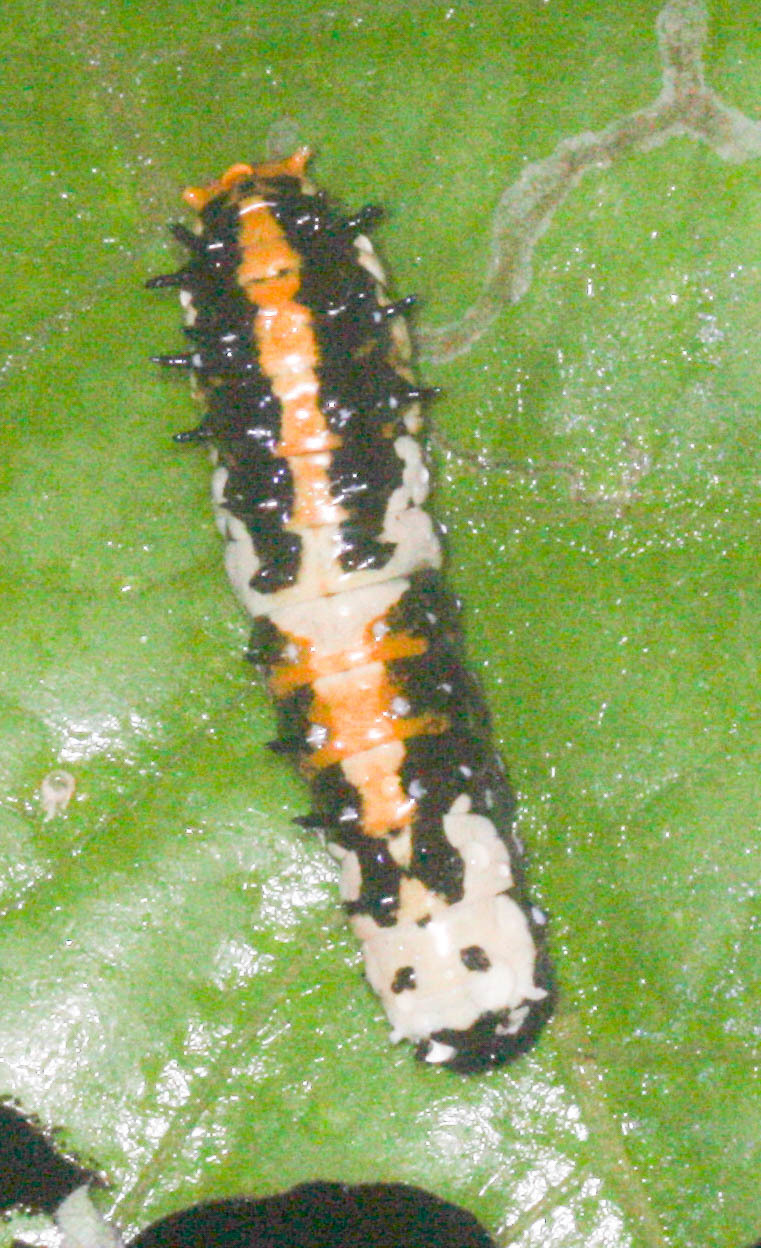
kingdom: Animalia
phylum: Arthropoda
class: Insecta
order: Lepidoptera
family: Papilionidae
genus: Chilasa
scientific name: Chilasa clytia
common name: Common mime
